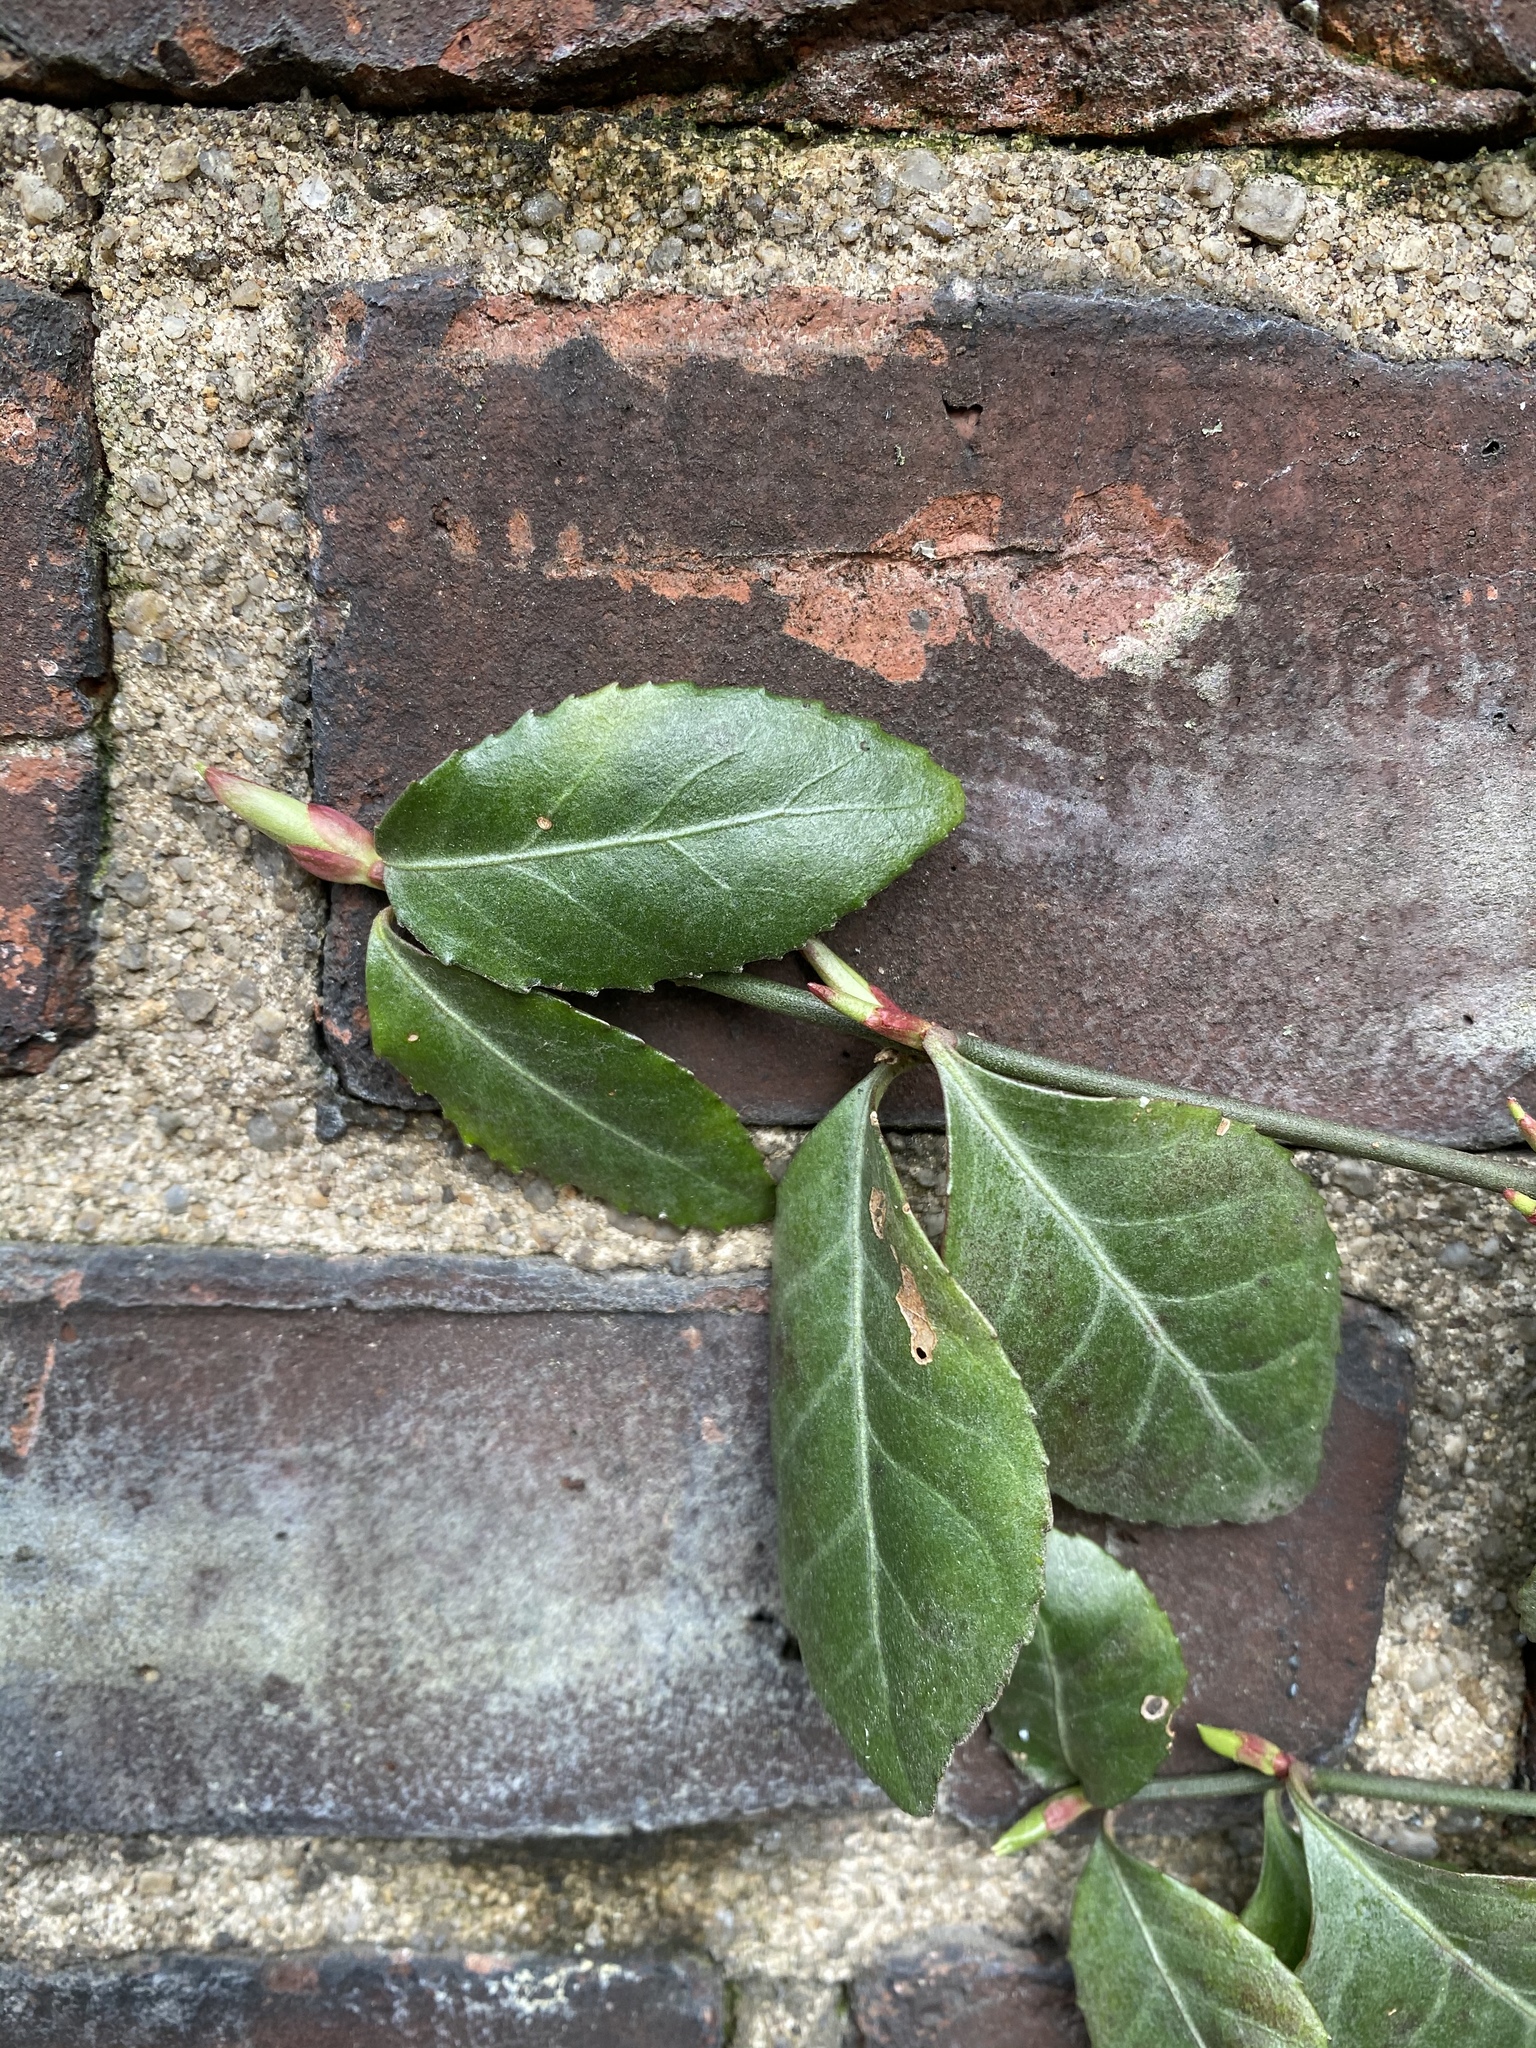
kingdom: Plantae
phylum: Tracheophyta
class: Magnoliopsida
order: Celastrales
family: Celastraceae
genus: Euonymus
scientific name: Euonymus fortunei
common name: Climbing euonymus
